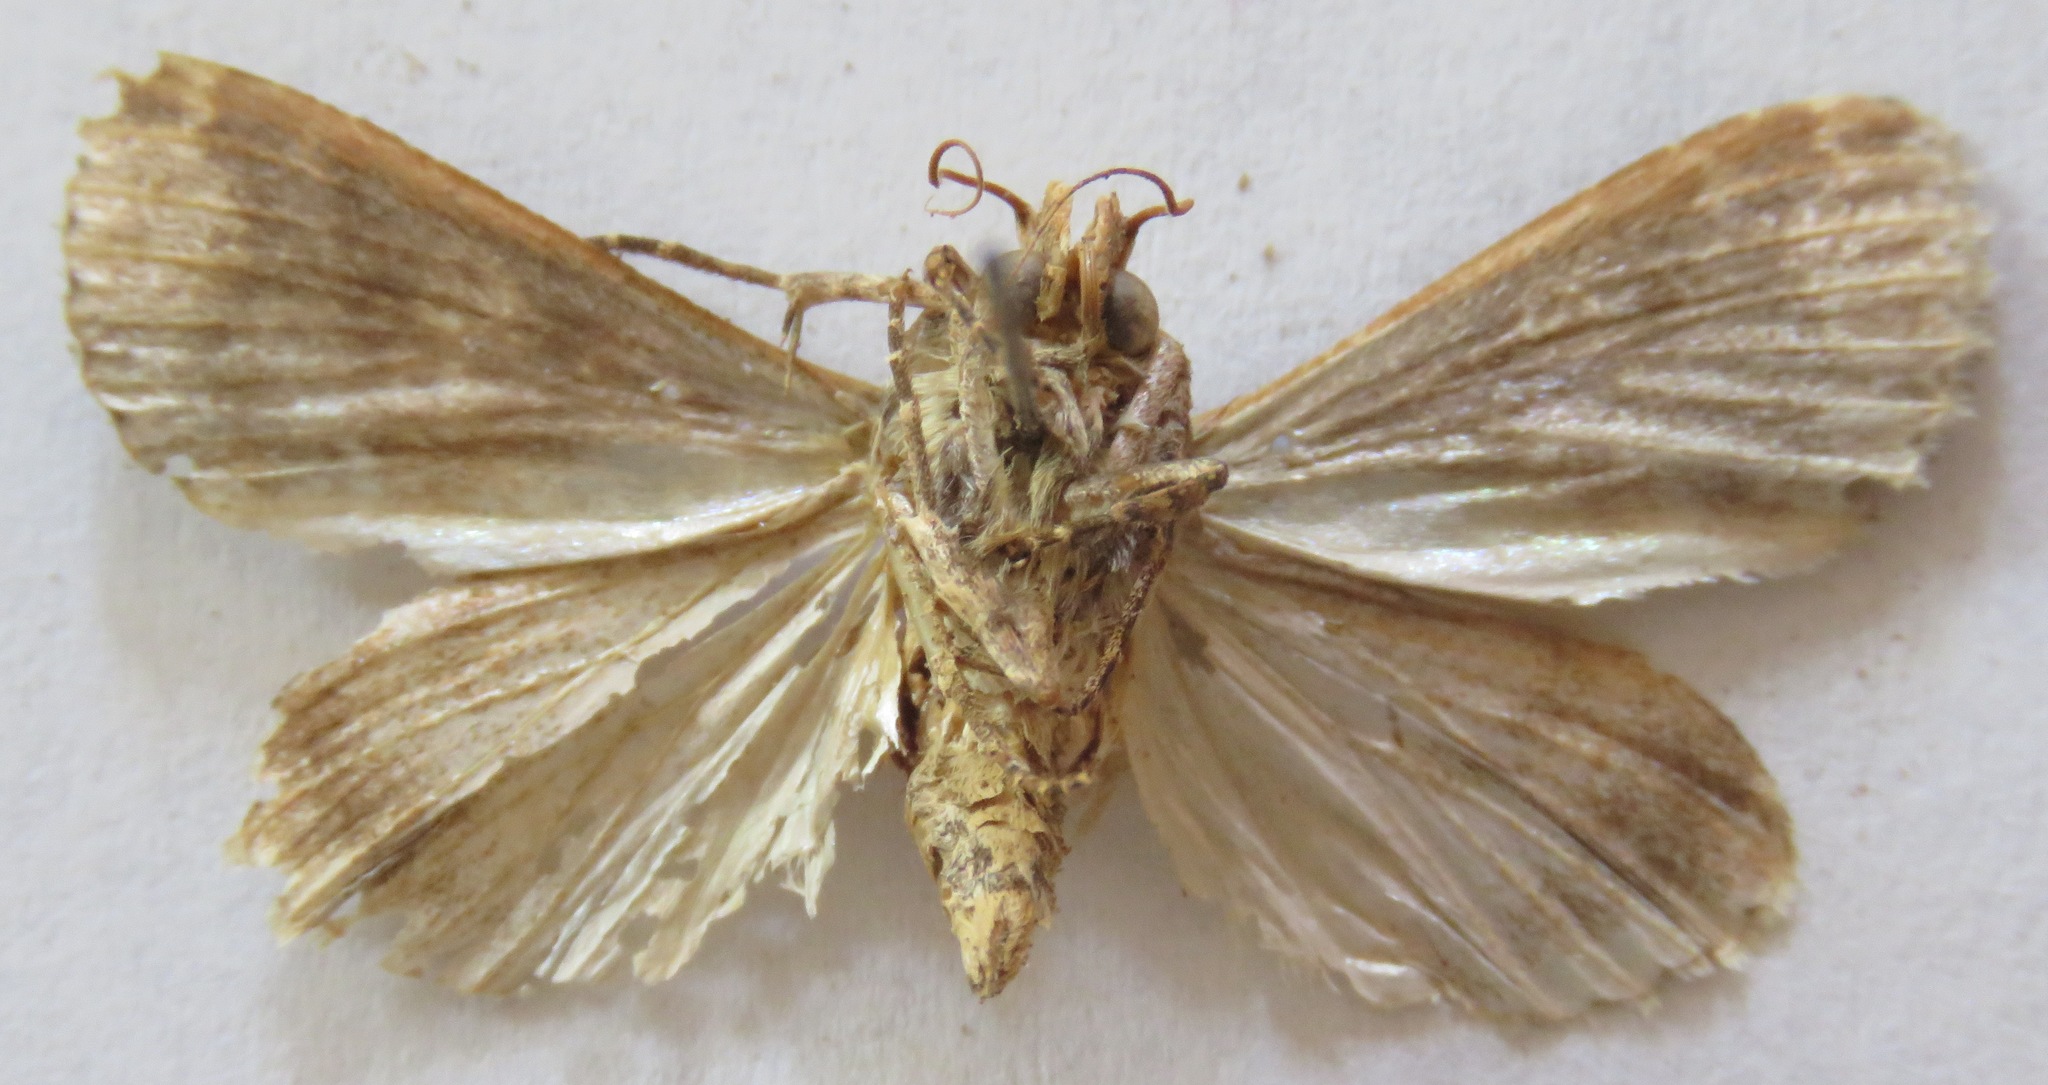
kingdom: Animalia
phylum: Arthropoda
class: Insecta
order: Lepidoptera
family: Noctuidae
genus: Condica
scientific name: Condica imitata
